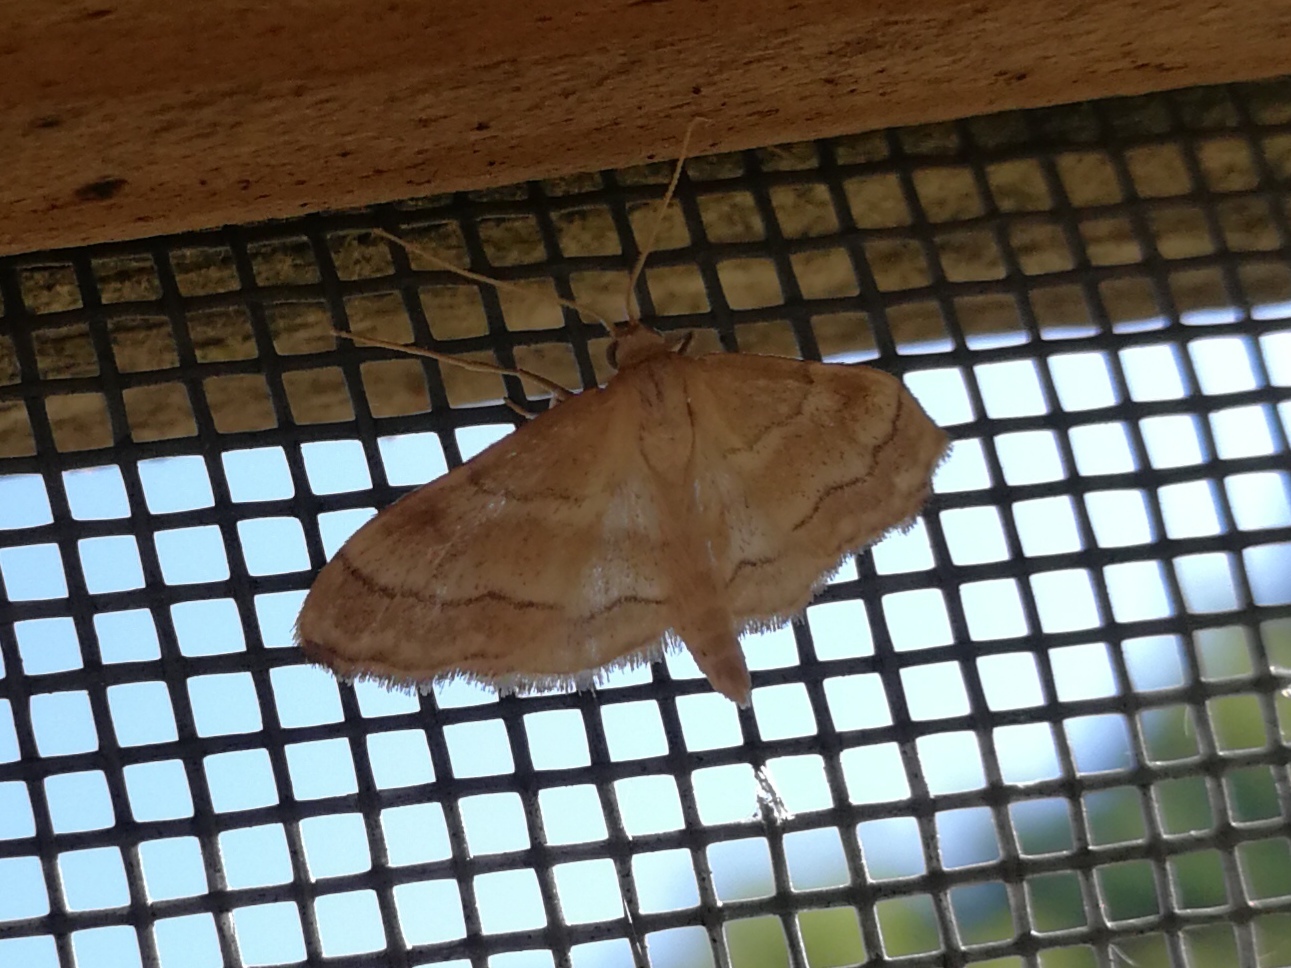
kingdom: Animalia
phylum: Arthropoda
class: Insecta
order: Lepidoptera
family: Geometridae
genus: Idaea
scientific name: Idaea circuitaria
